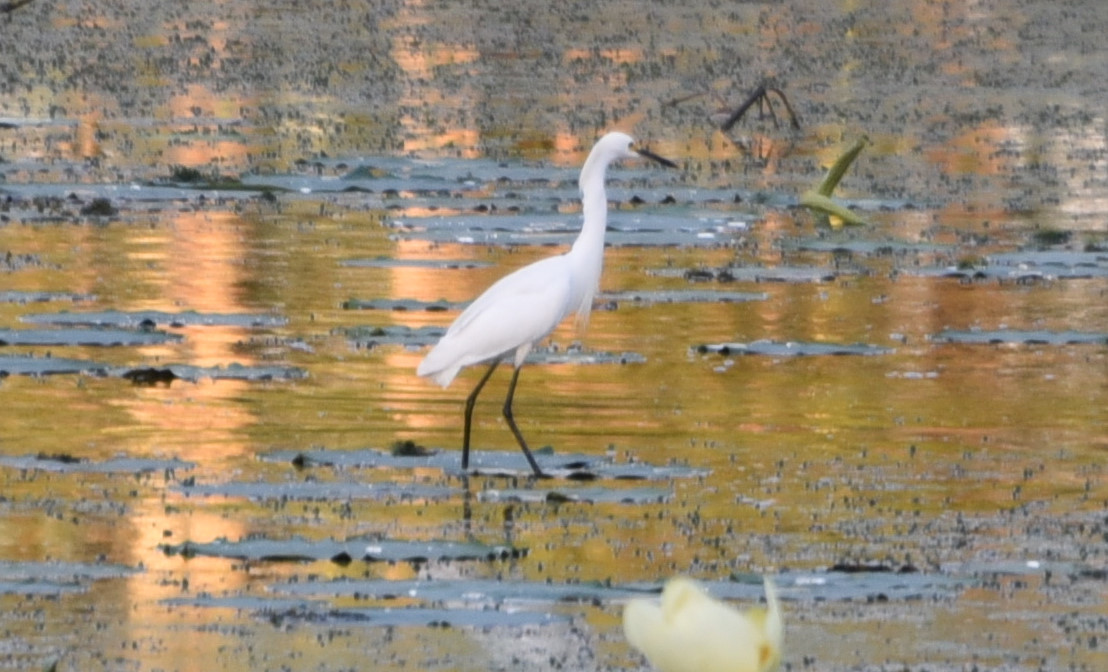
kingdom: Animalia
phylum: Chordata
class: Aves
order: Pelecaniformes
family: Ardeidae
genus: Egretta
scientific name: Egretta thula
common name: Snowy egret
